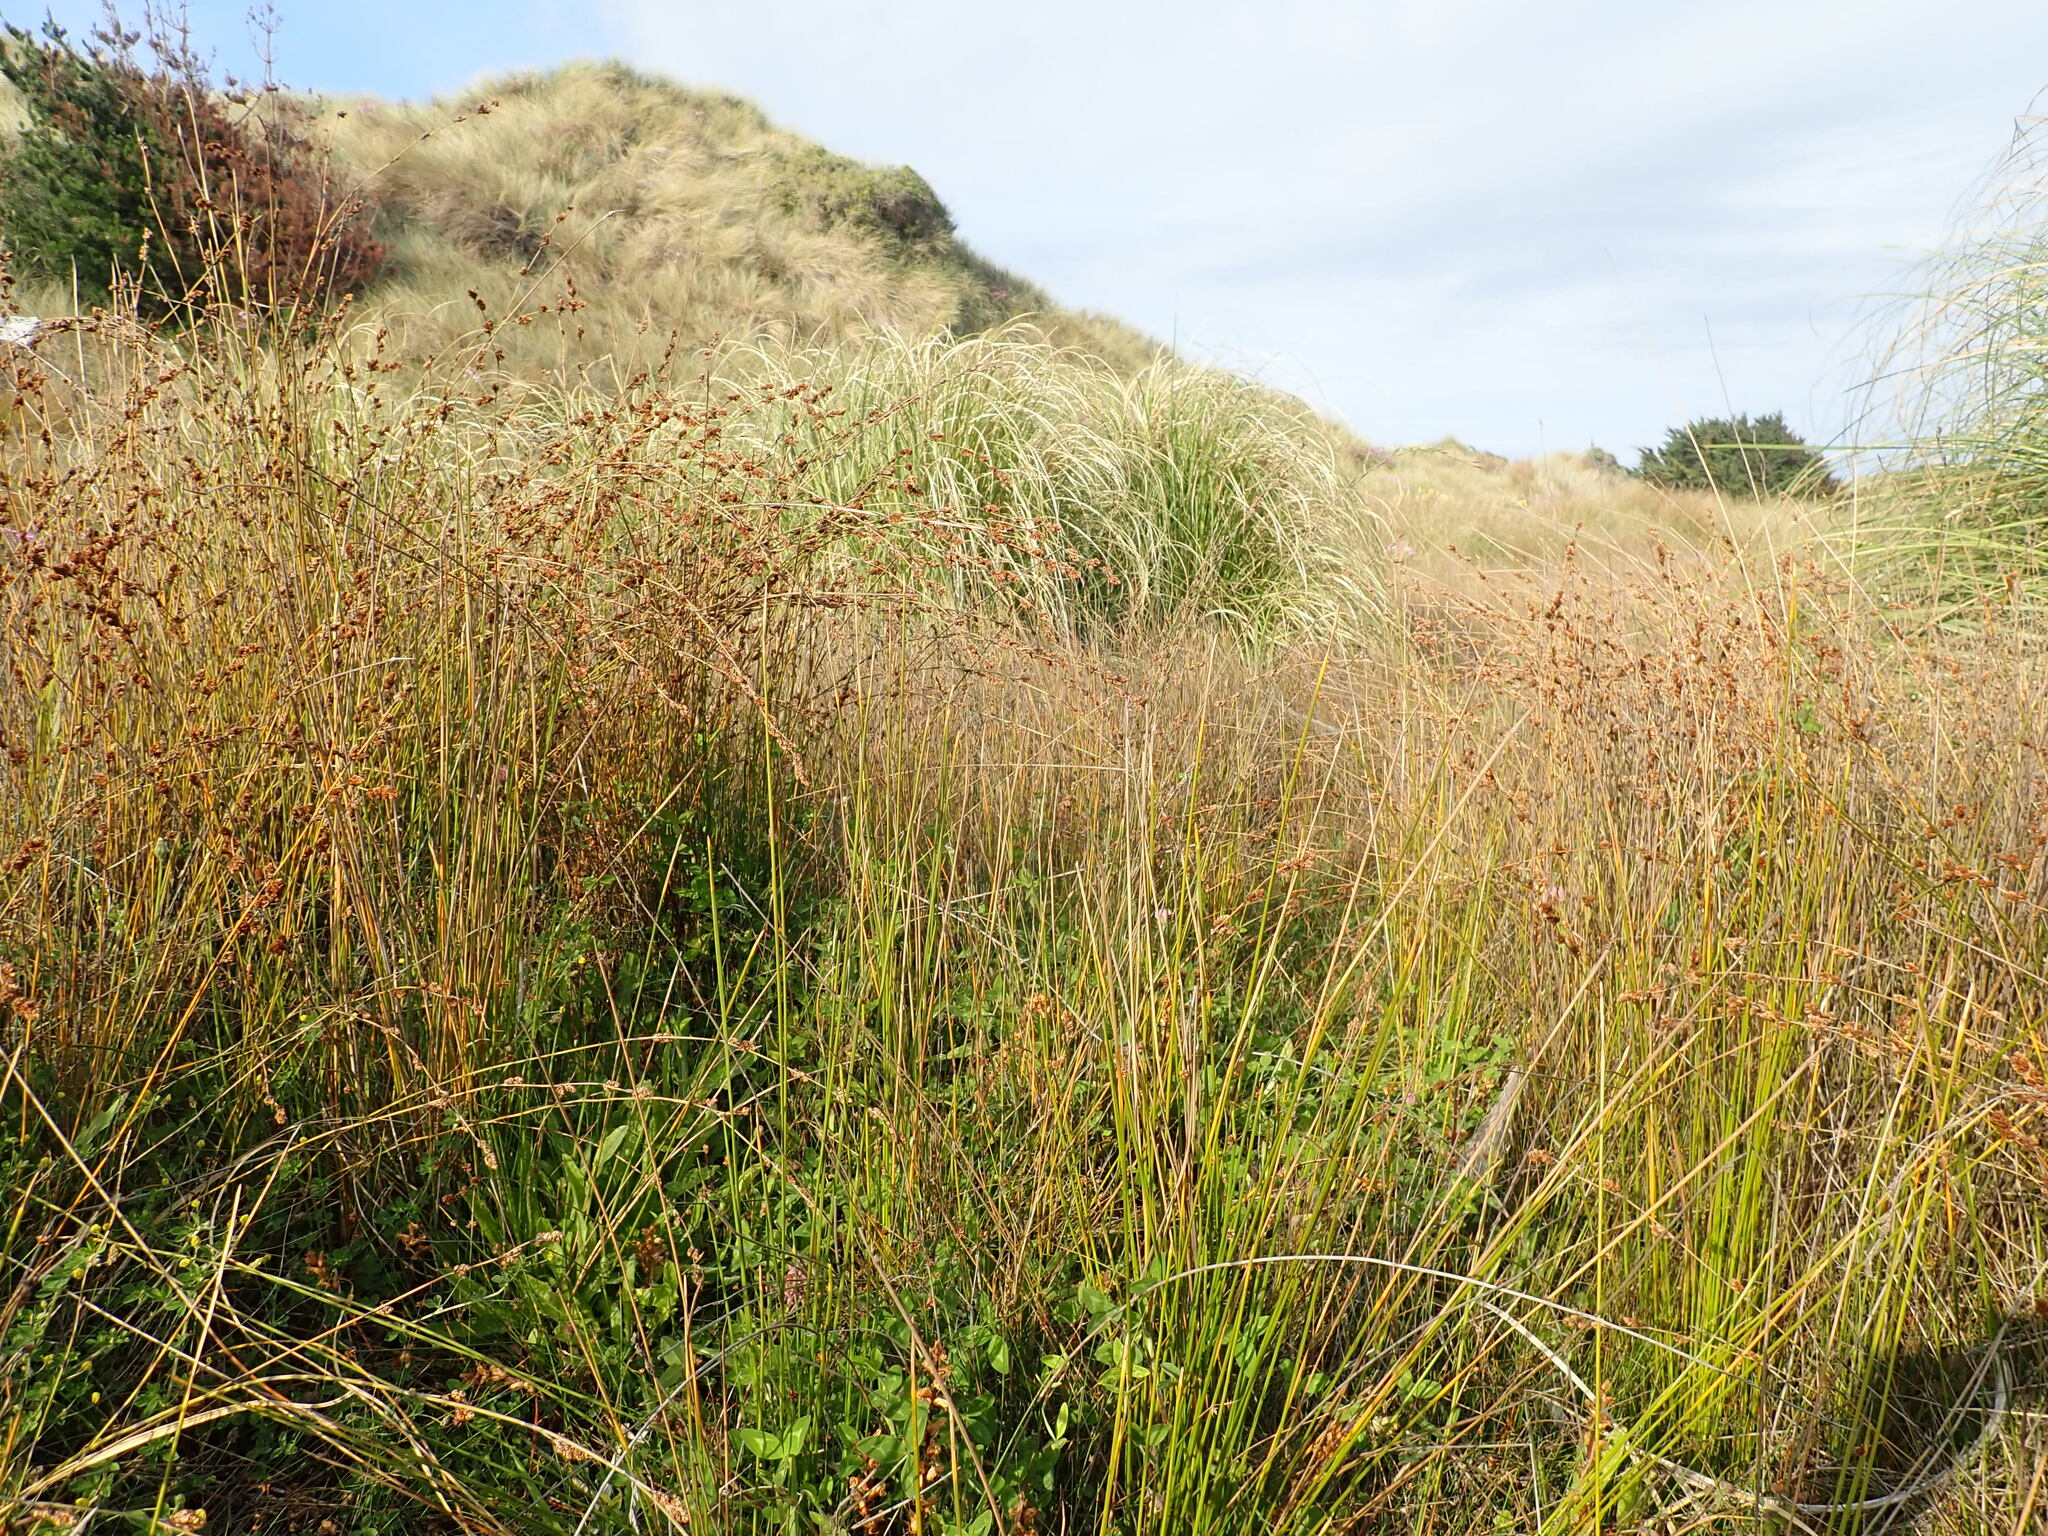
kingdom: Plantae
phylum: Tracheophyta
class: Liliopsida
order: Poales
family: Restionaceae
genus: Apodasmia
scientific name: Apodasmia similis
